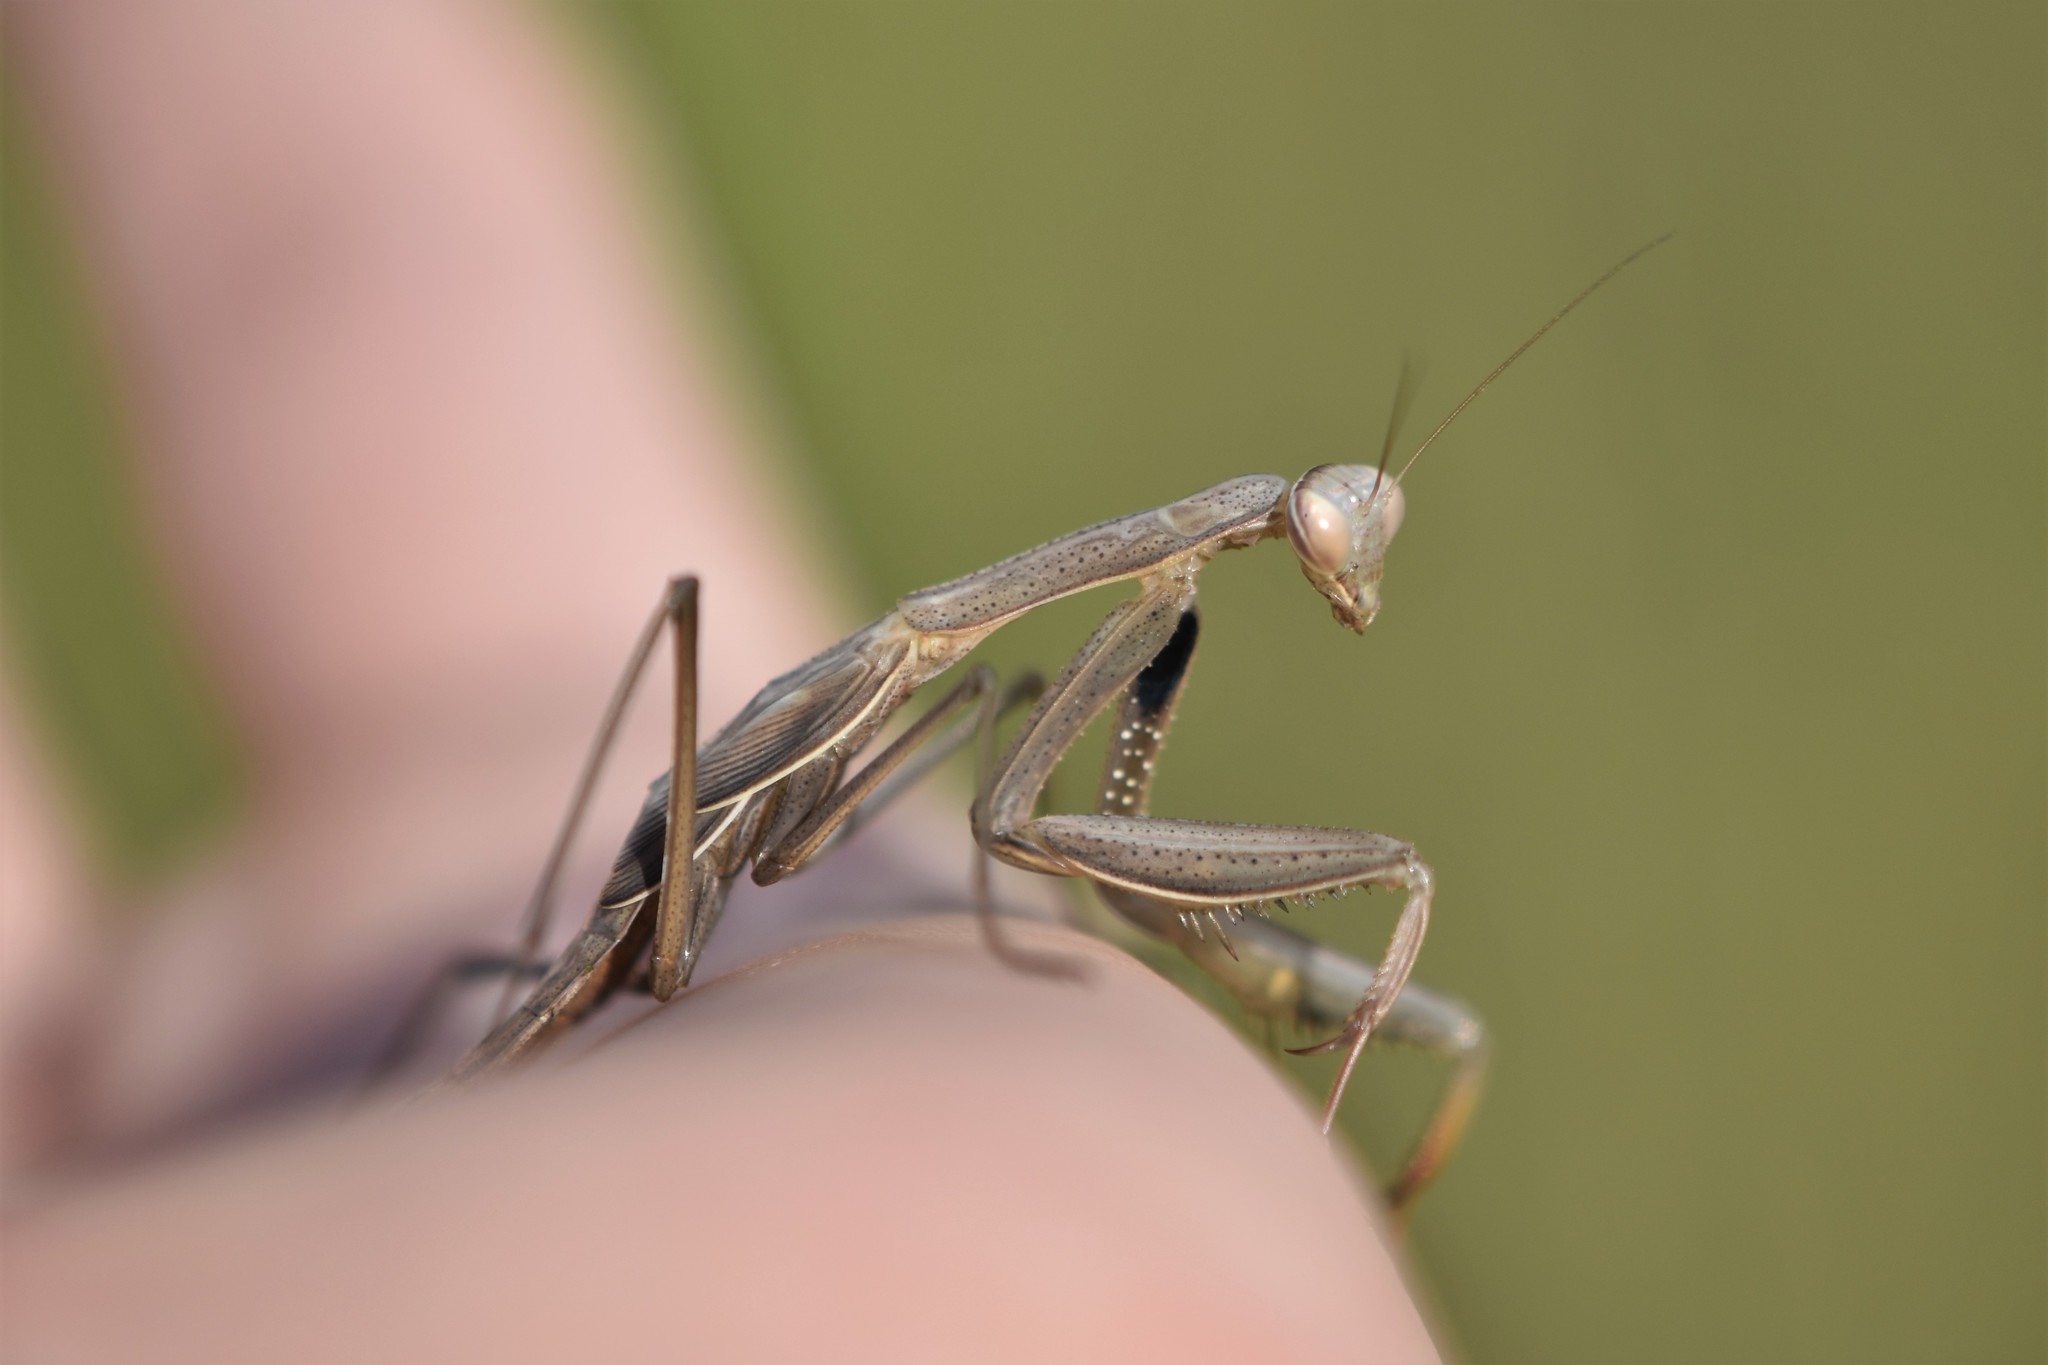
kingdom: Animalia
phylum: Arthropoda
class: Insecta
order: Mantodea
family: Mantidae
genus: Mantis
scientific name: Mantis religiosa
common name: Praying mantis
